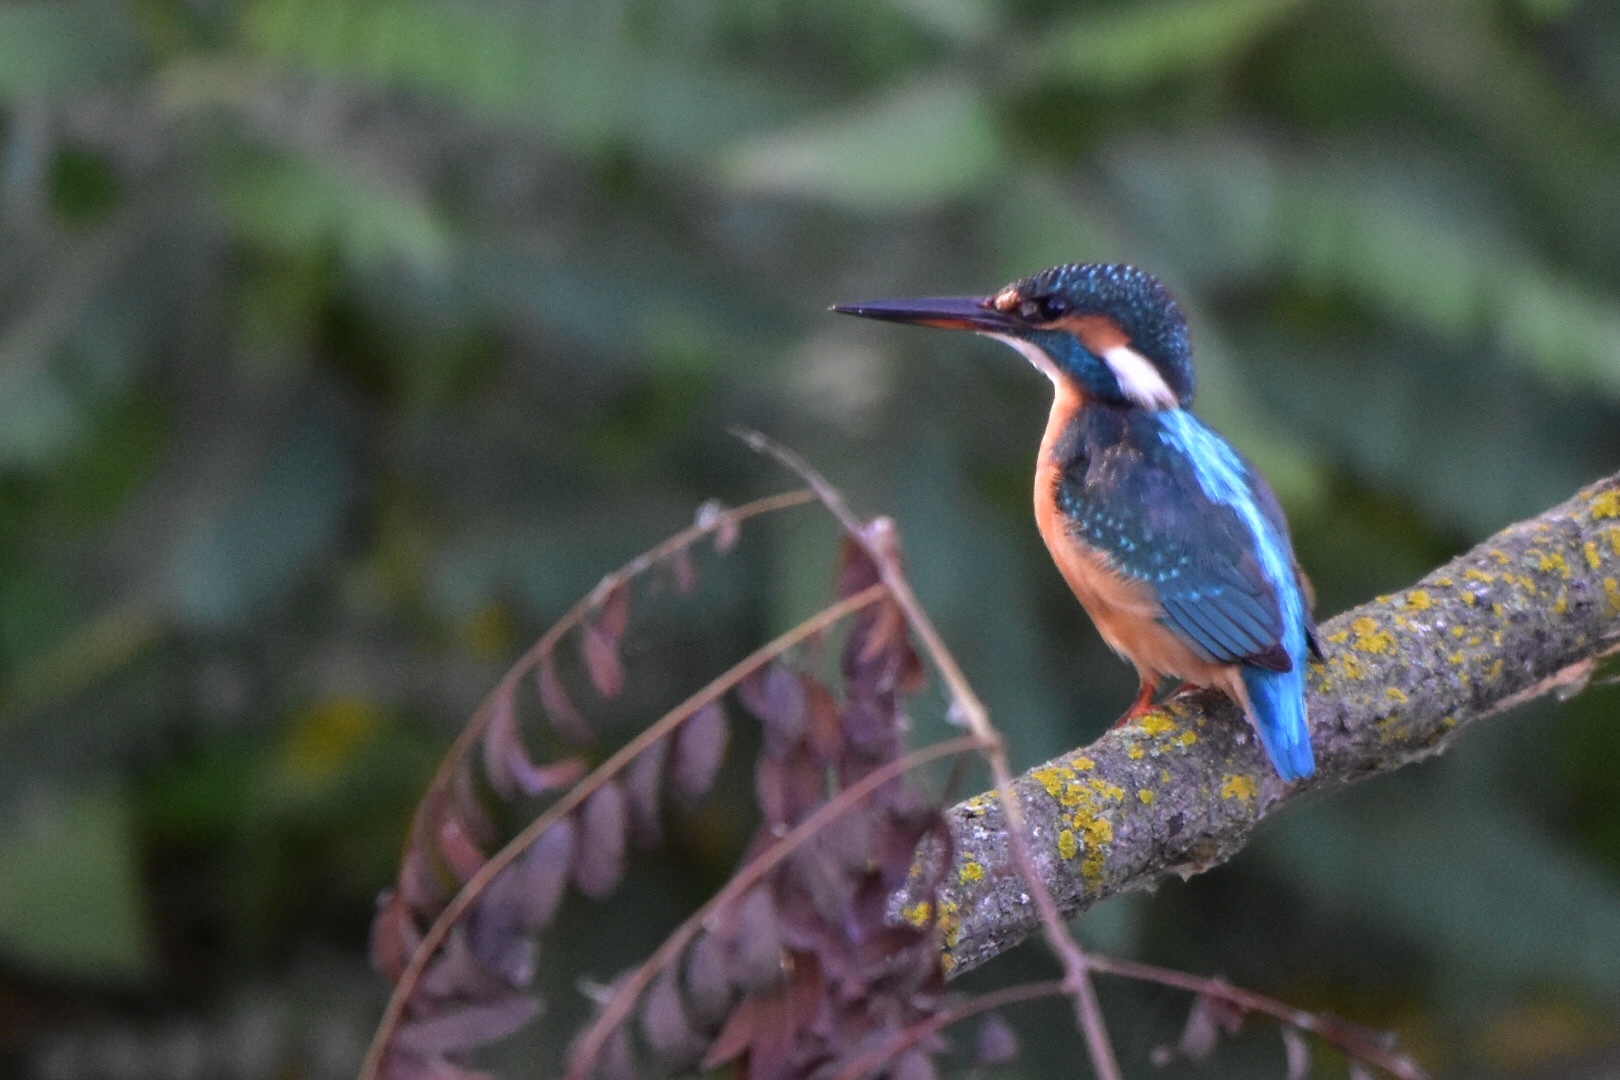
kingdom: Animalia
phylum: Chordata
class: Aves
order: Coraciiformes
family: Alcedinidae
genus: Alcedo
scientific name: Alcedo atthis
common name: Common kingfisher
